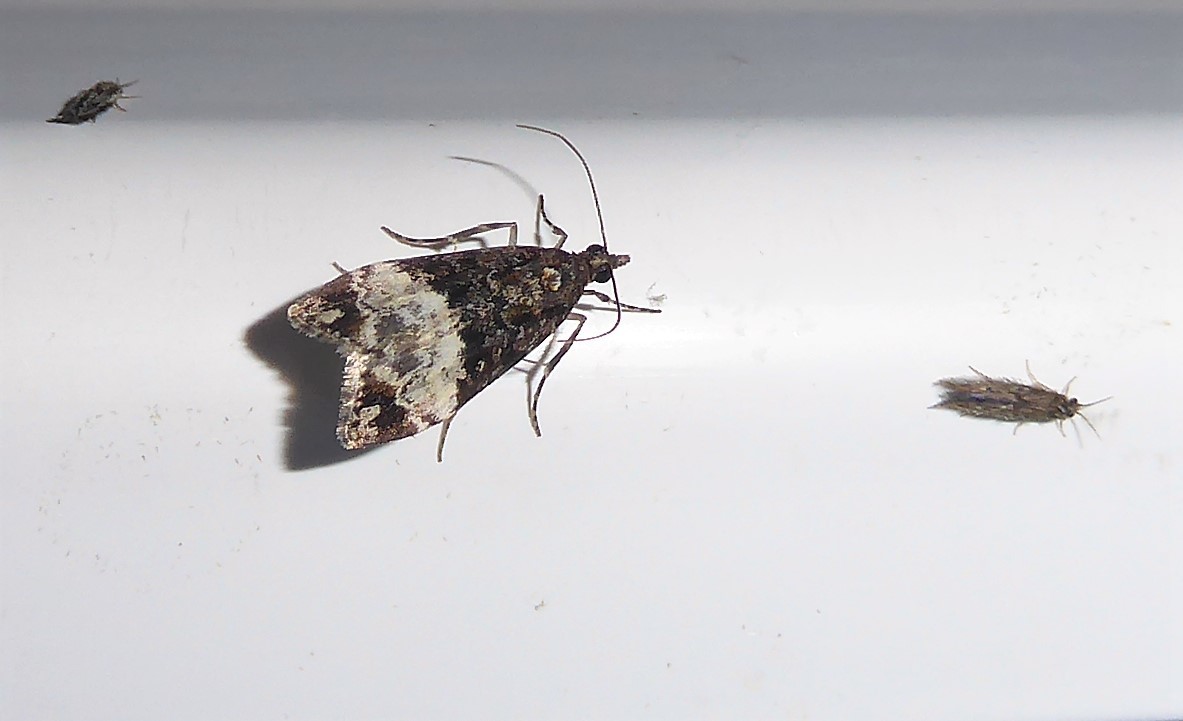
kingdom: Animalia
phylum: Arthropoda
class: Insecta
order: Lepidoptera
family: Crambidae
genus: Scoparia
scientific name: Scoparia minusculalis
